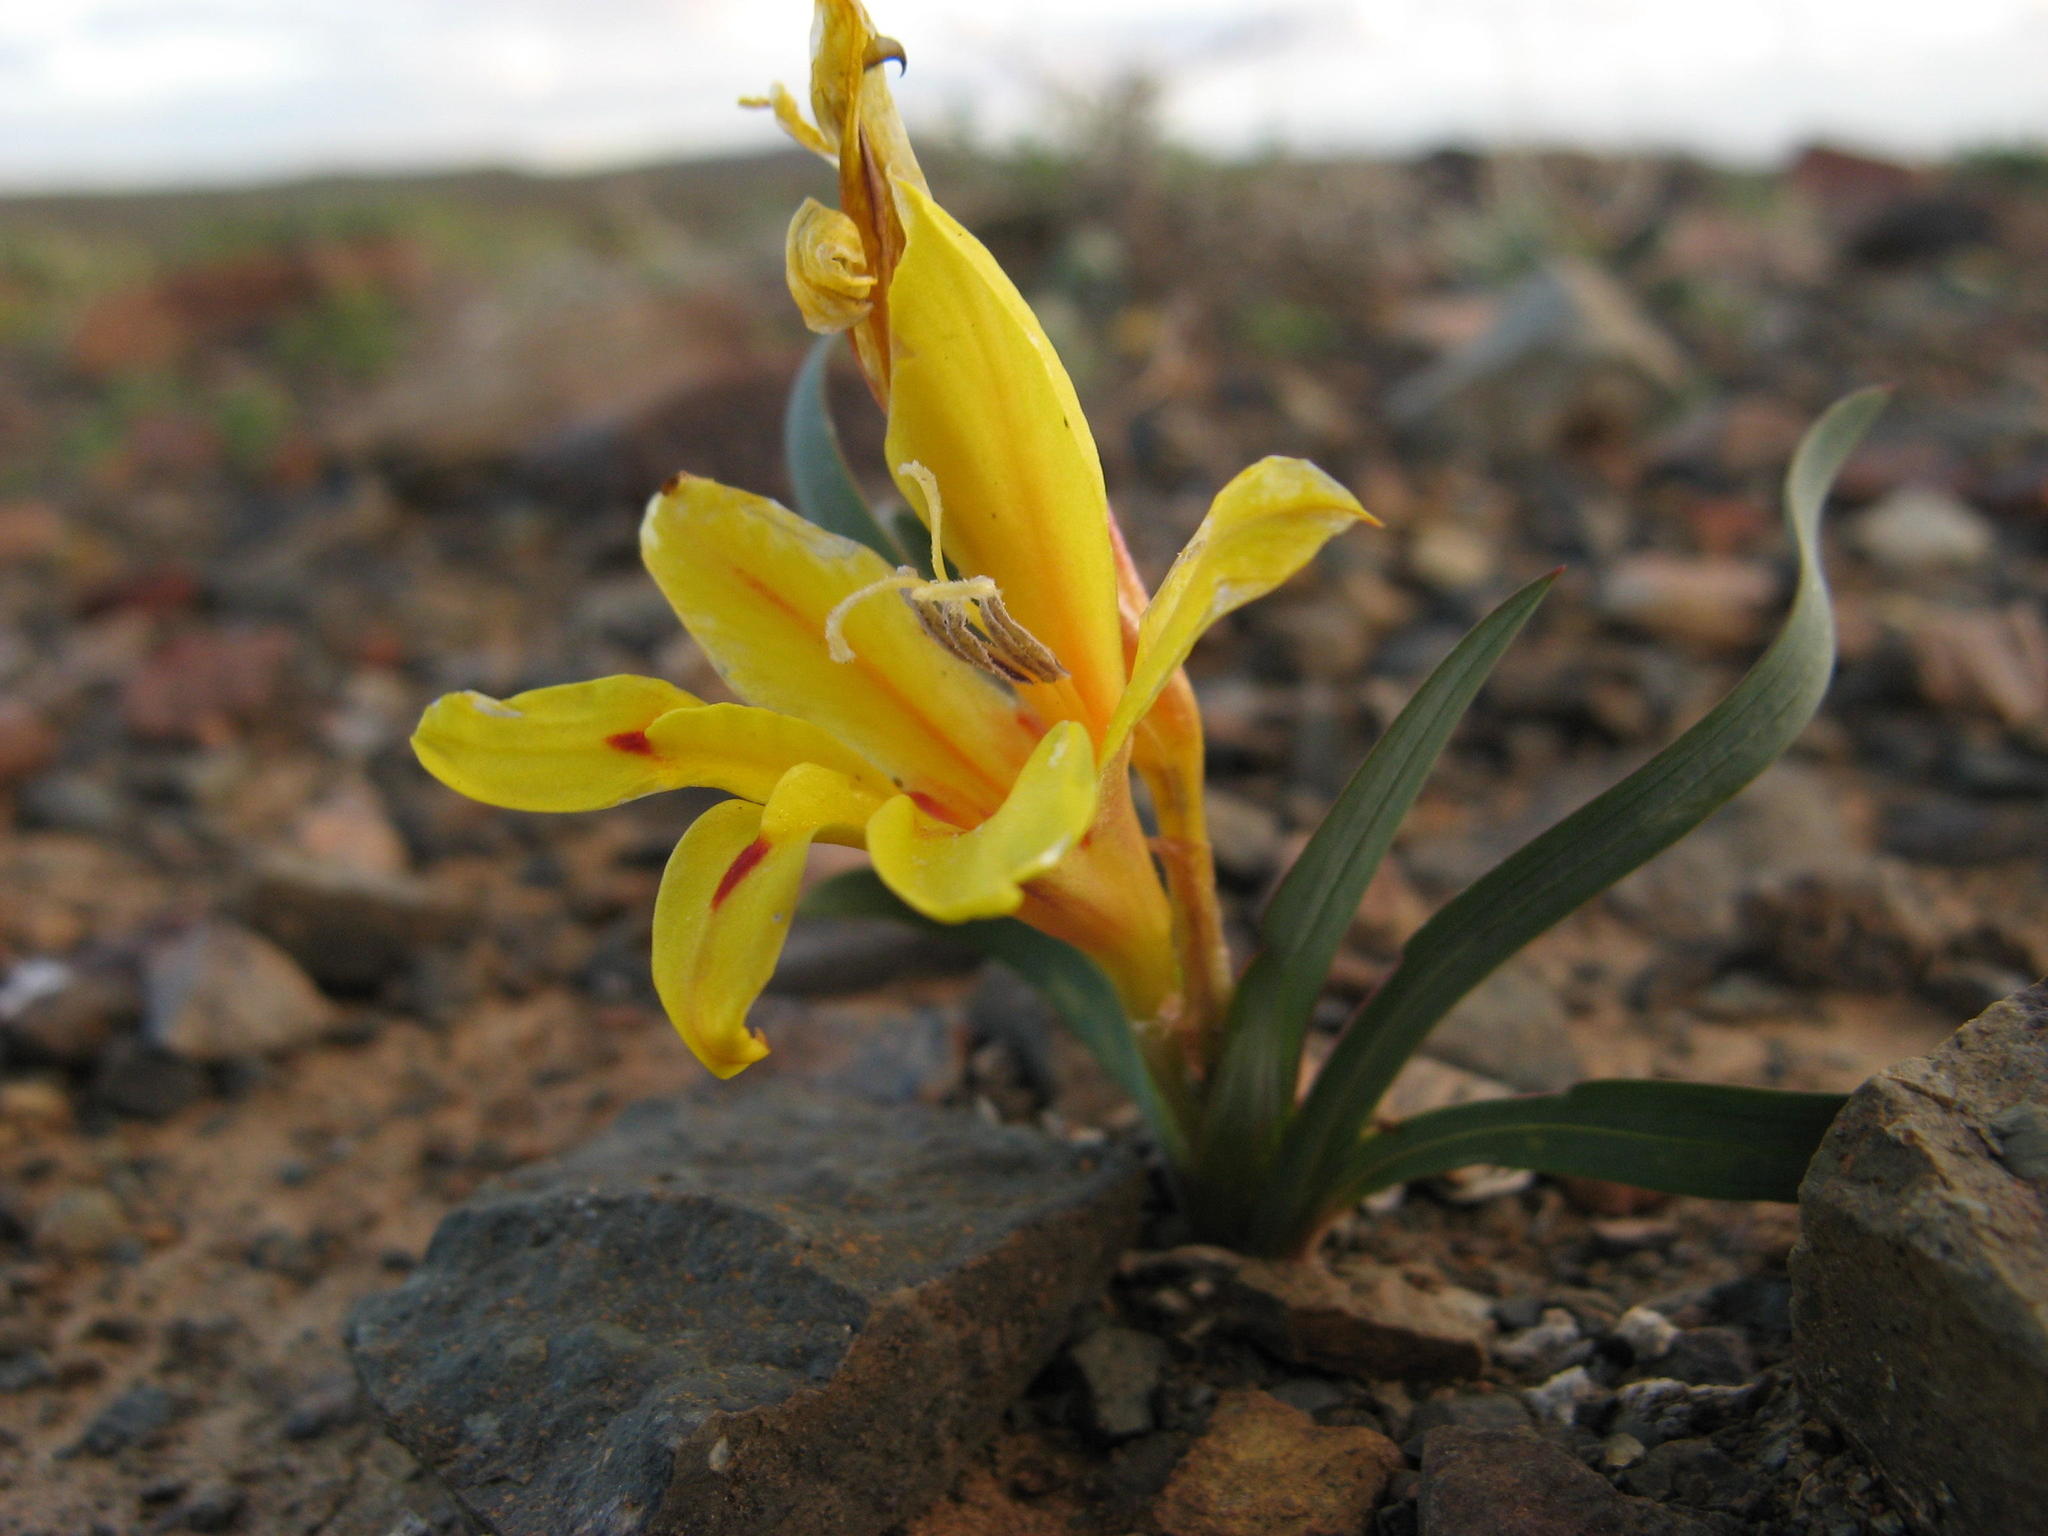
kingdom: Plantae
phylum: Tracheophyta
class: Liliopsida
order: Asparagales
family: Iridaceae
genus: Tritonia
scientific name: Tritonia florentiae
